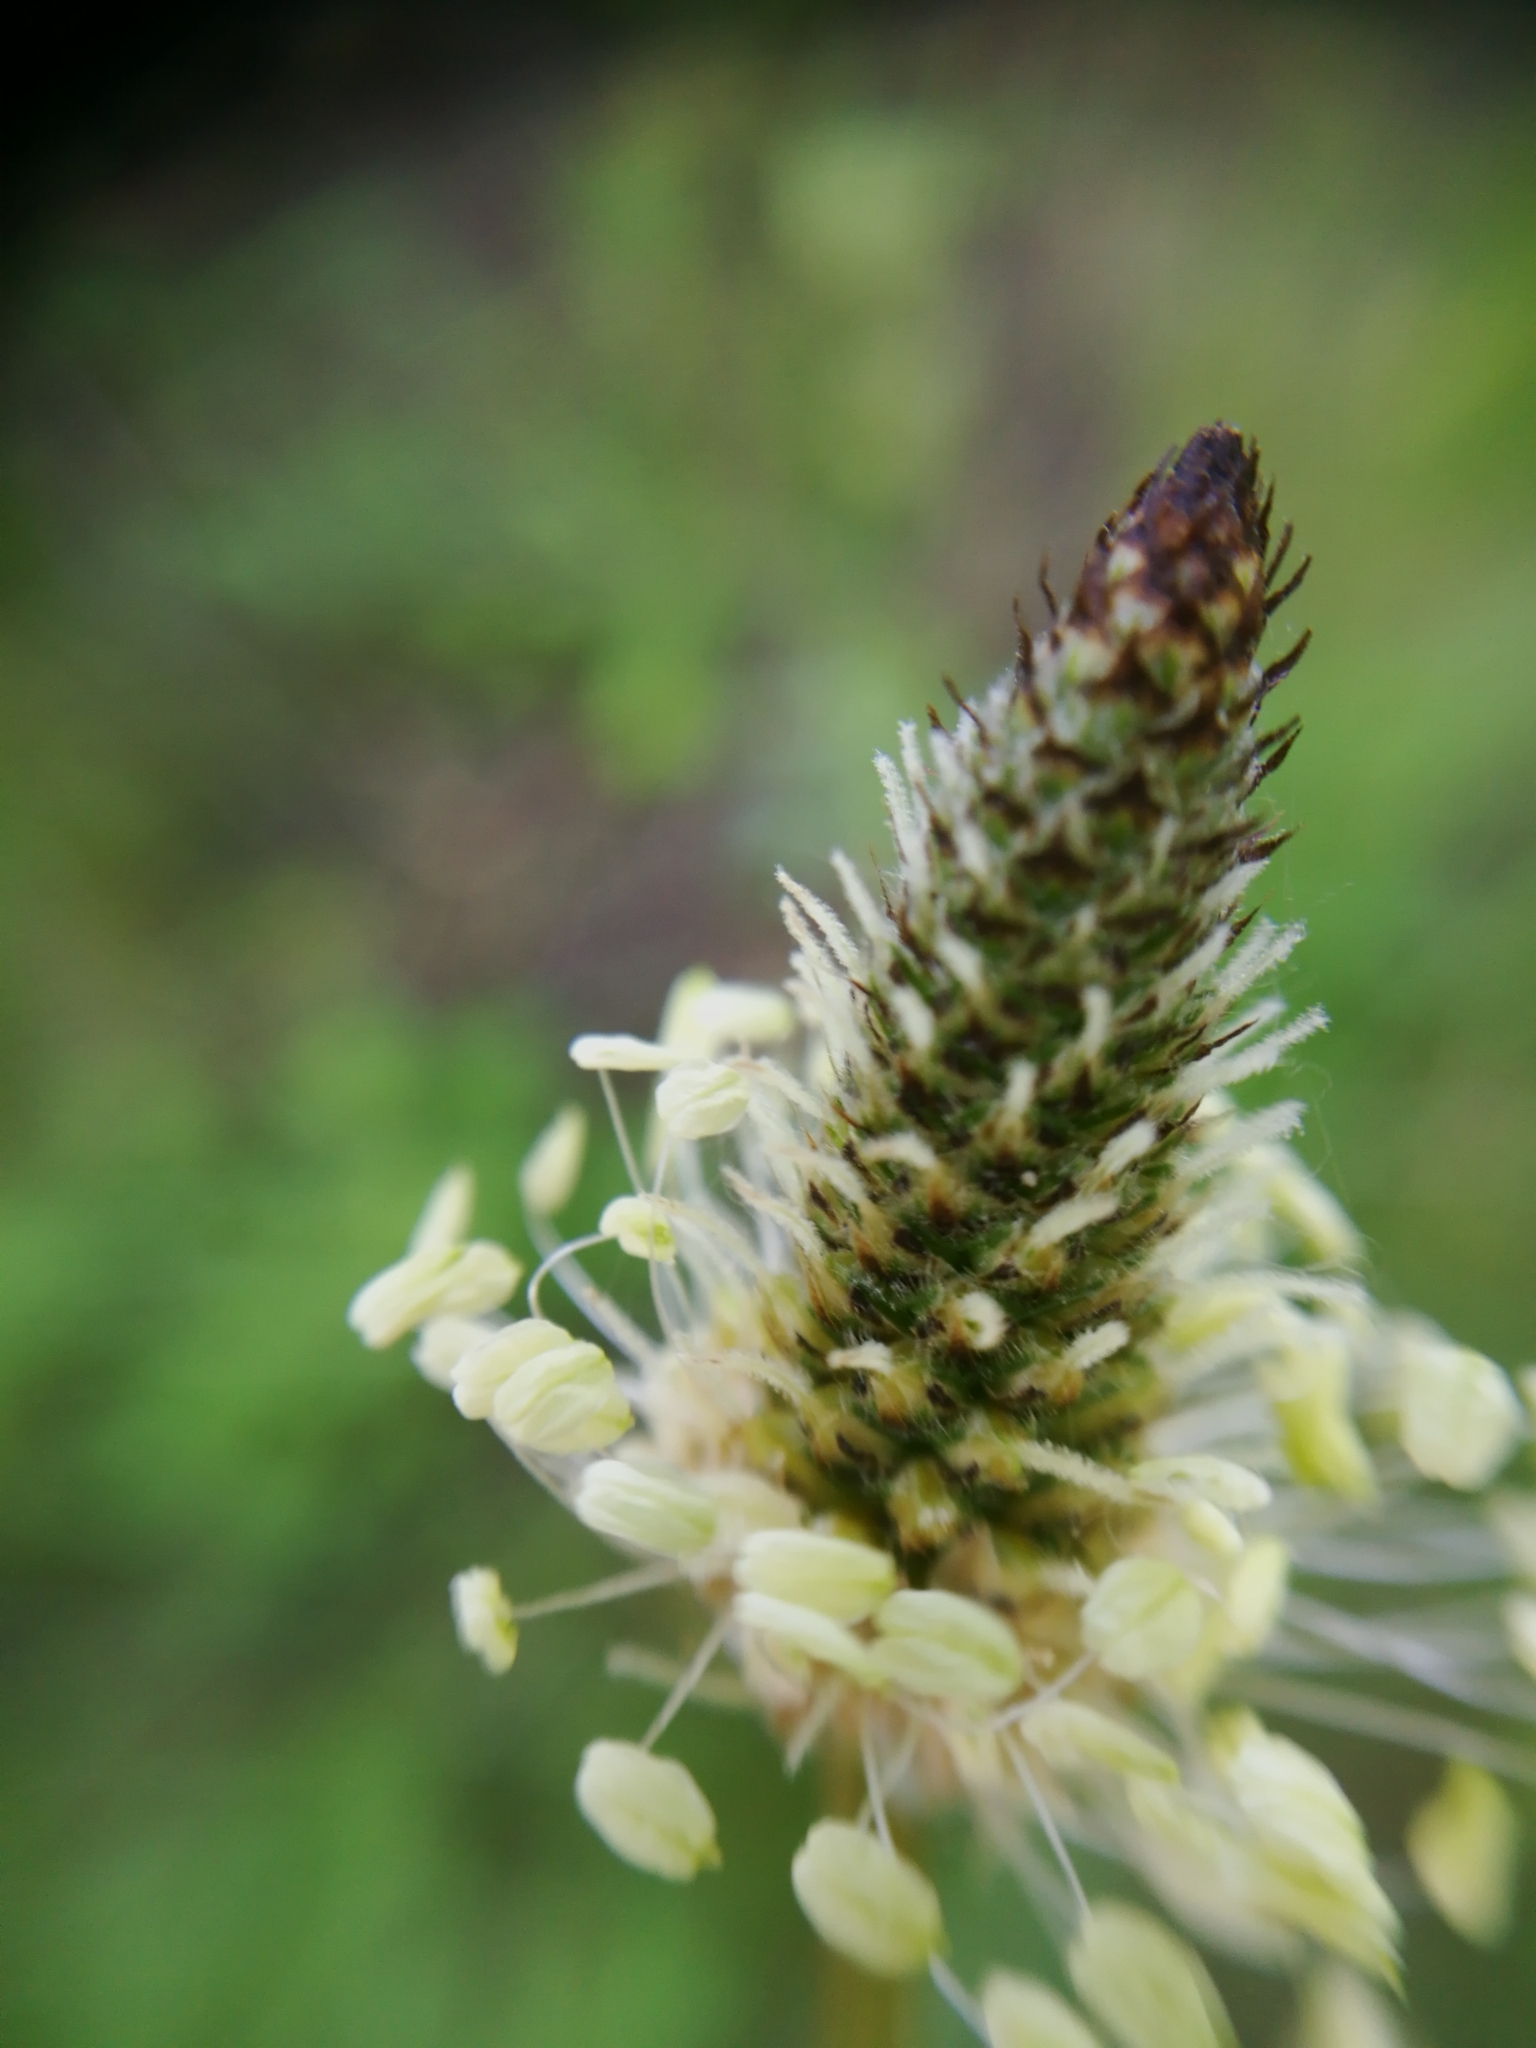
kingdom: Plantae
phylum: Tracheophyta
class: Magnoliopsida
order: Lamiales
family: Plantaginaceae
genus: Plantago
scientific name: Plantago lanceolata
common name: Ribwort plantain
